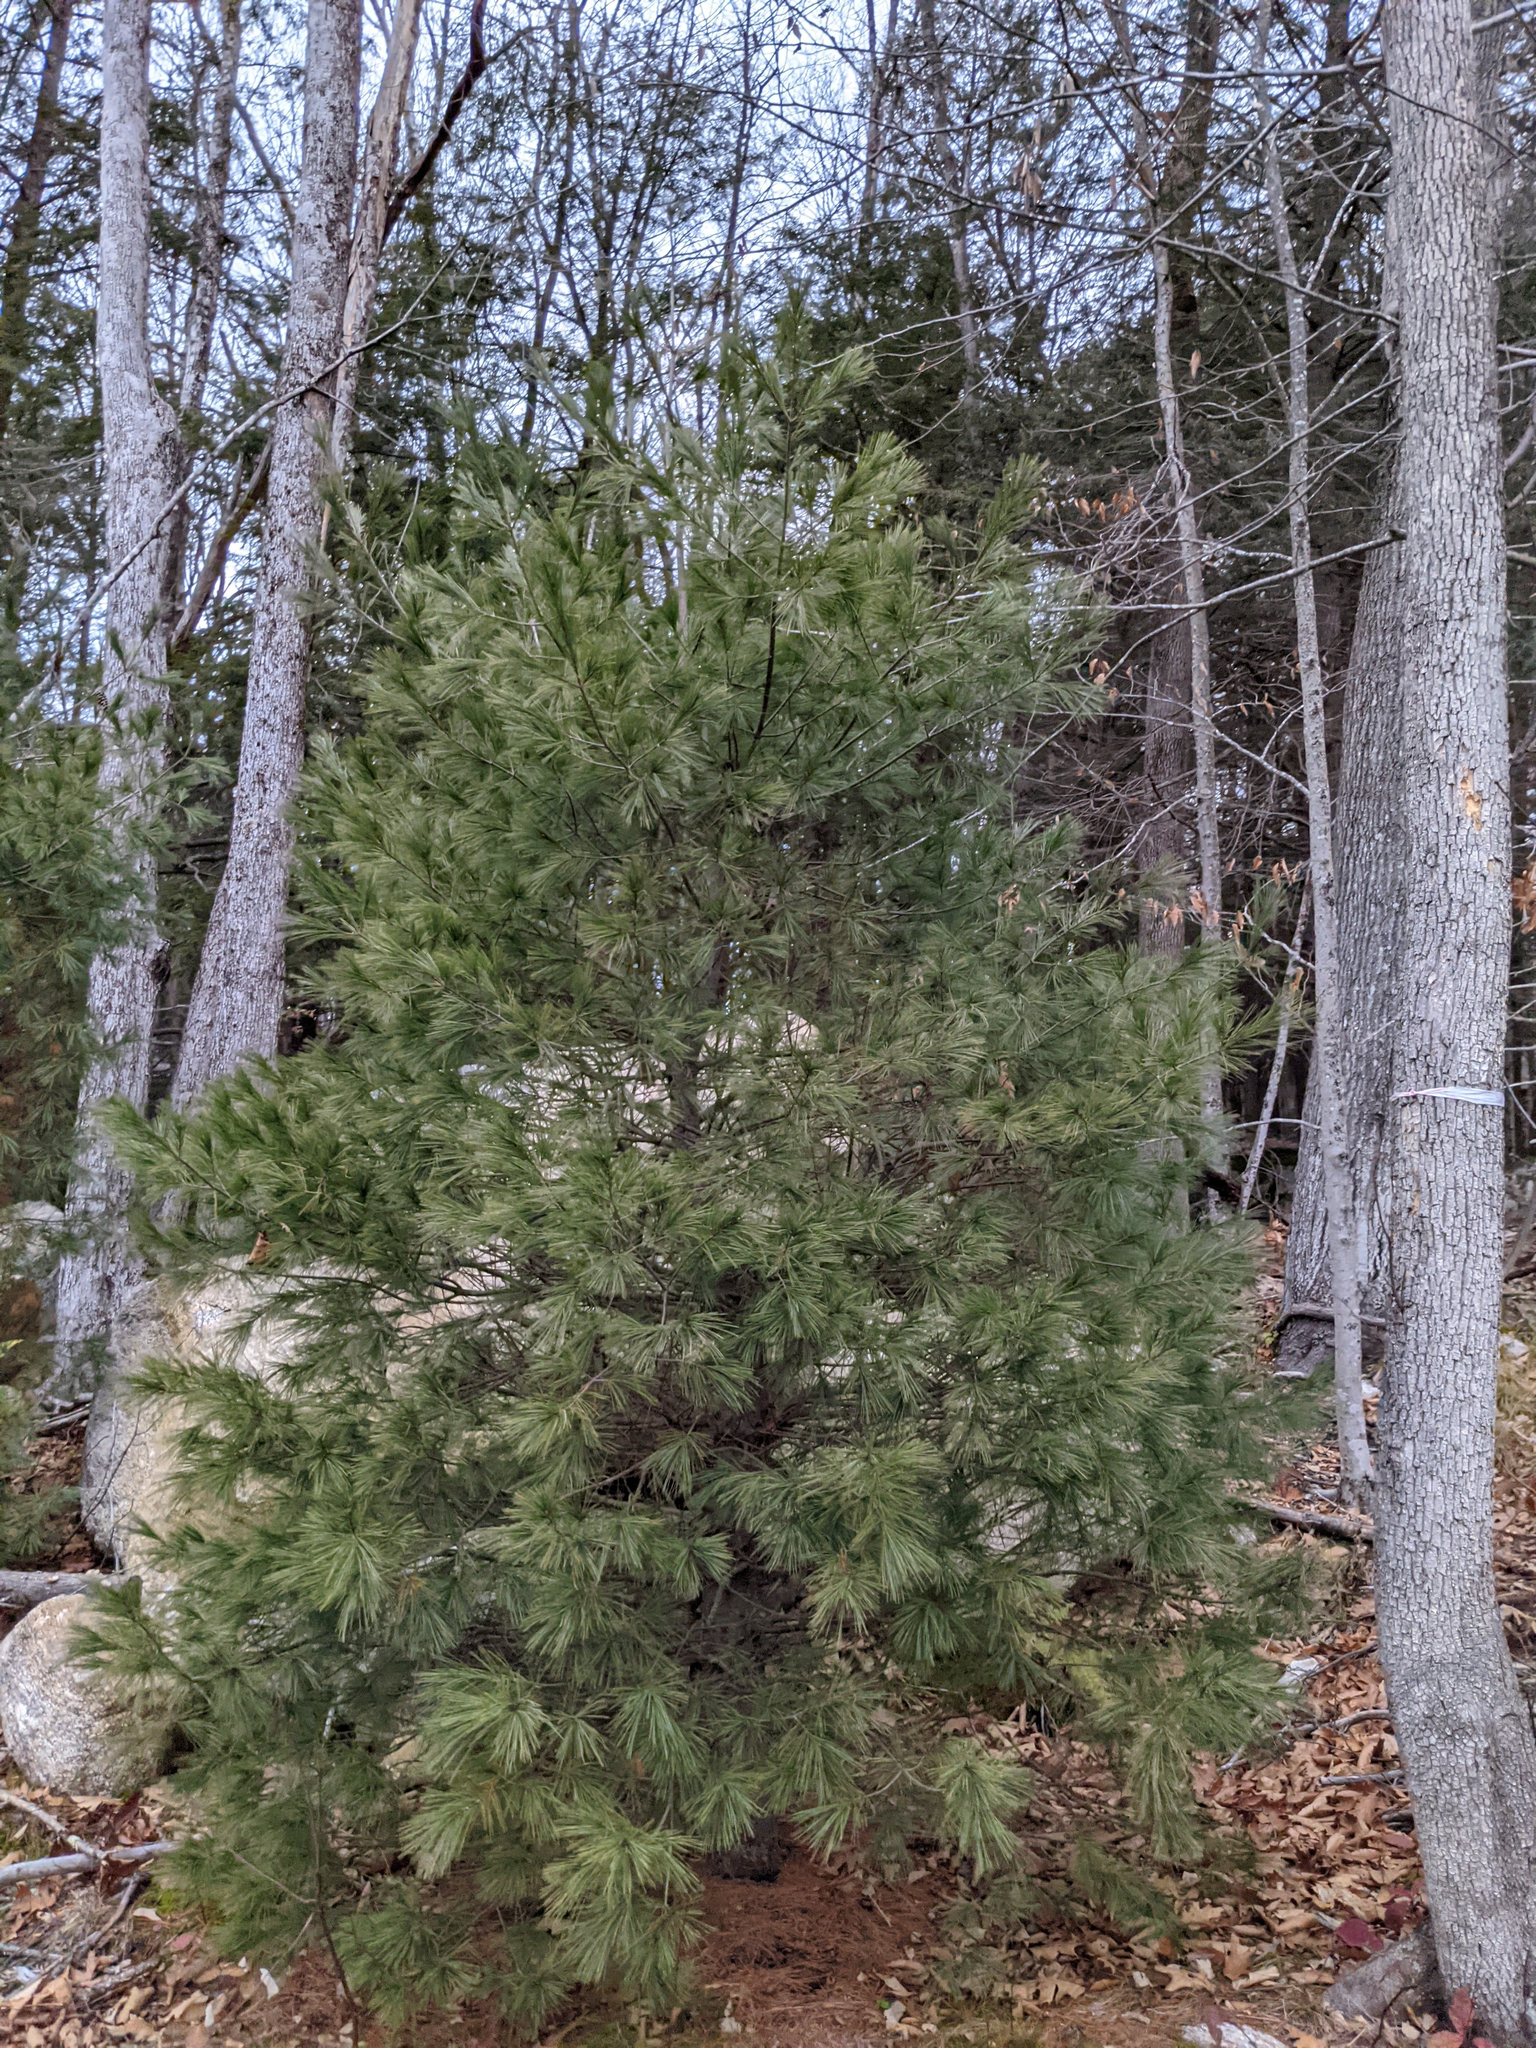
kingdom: Plantae
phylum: Tracheophyta
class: Pinopsida
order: Pinales
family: Pinaceae
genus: Pinus
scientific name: Pinus strobus
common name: Weymouth pine
